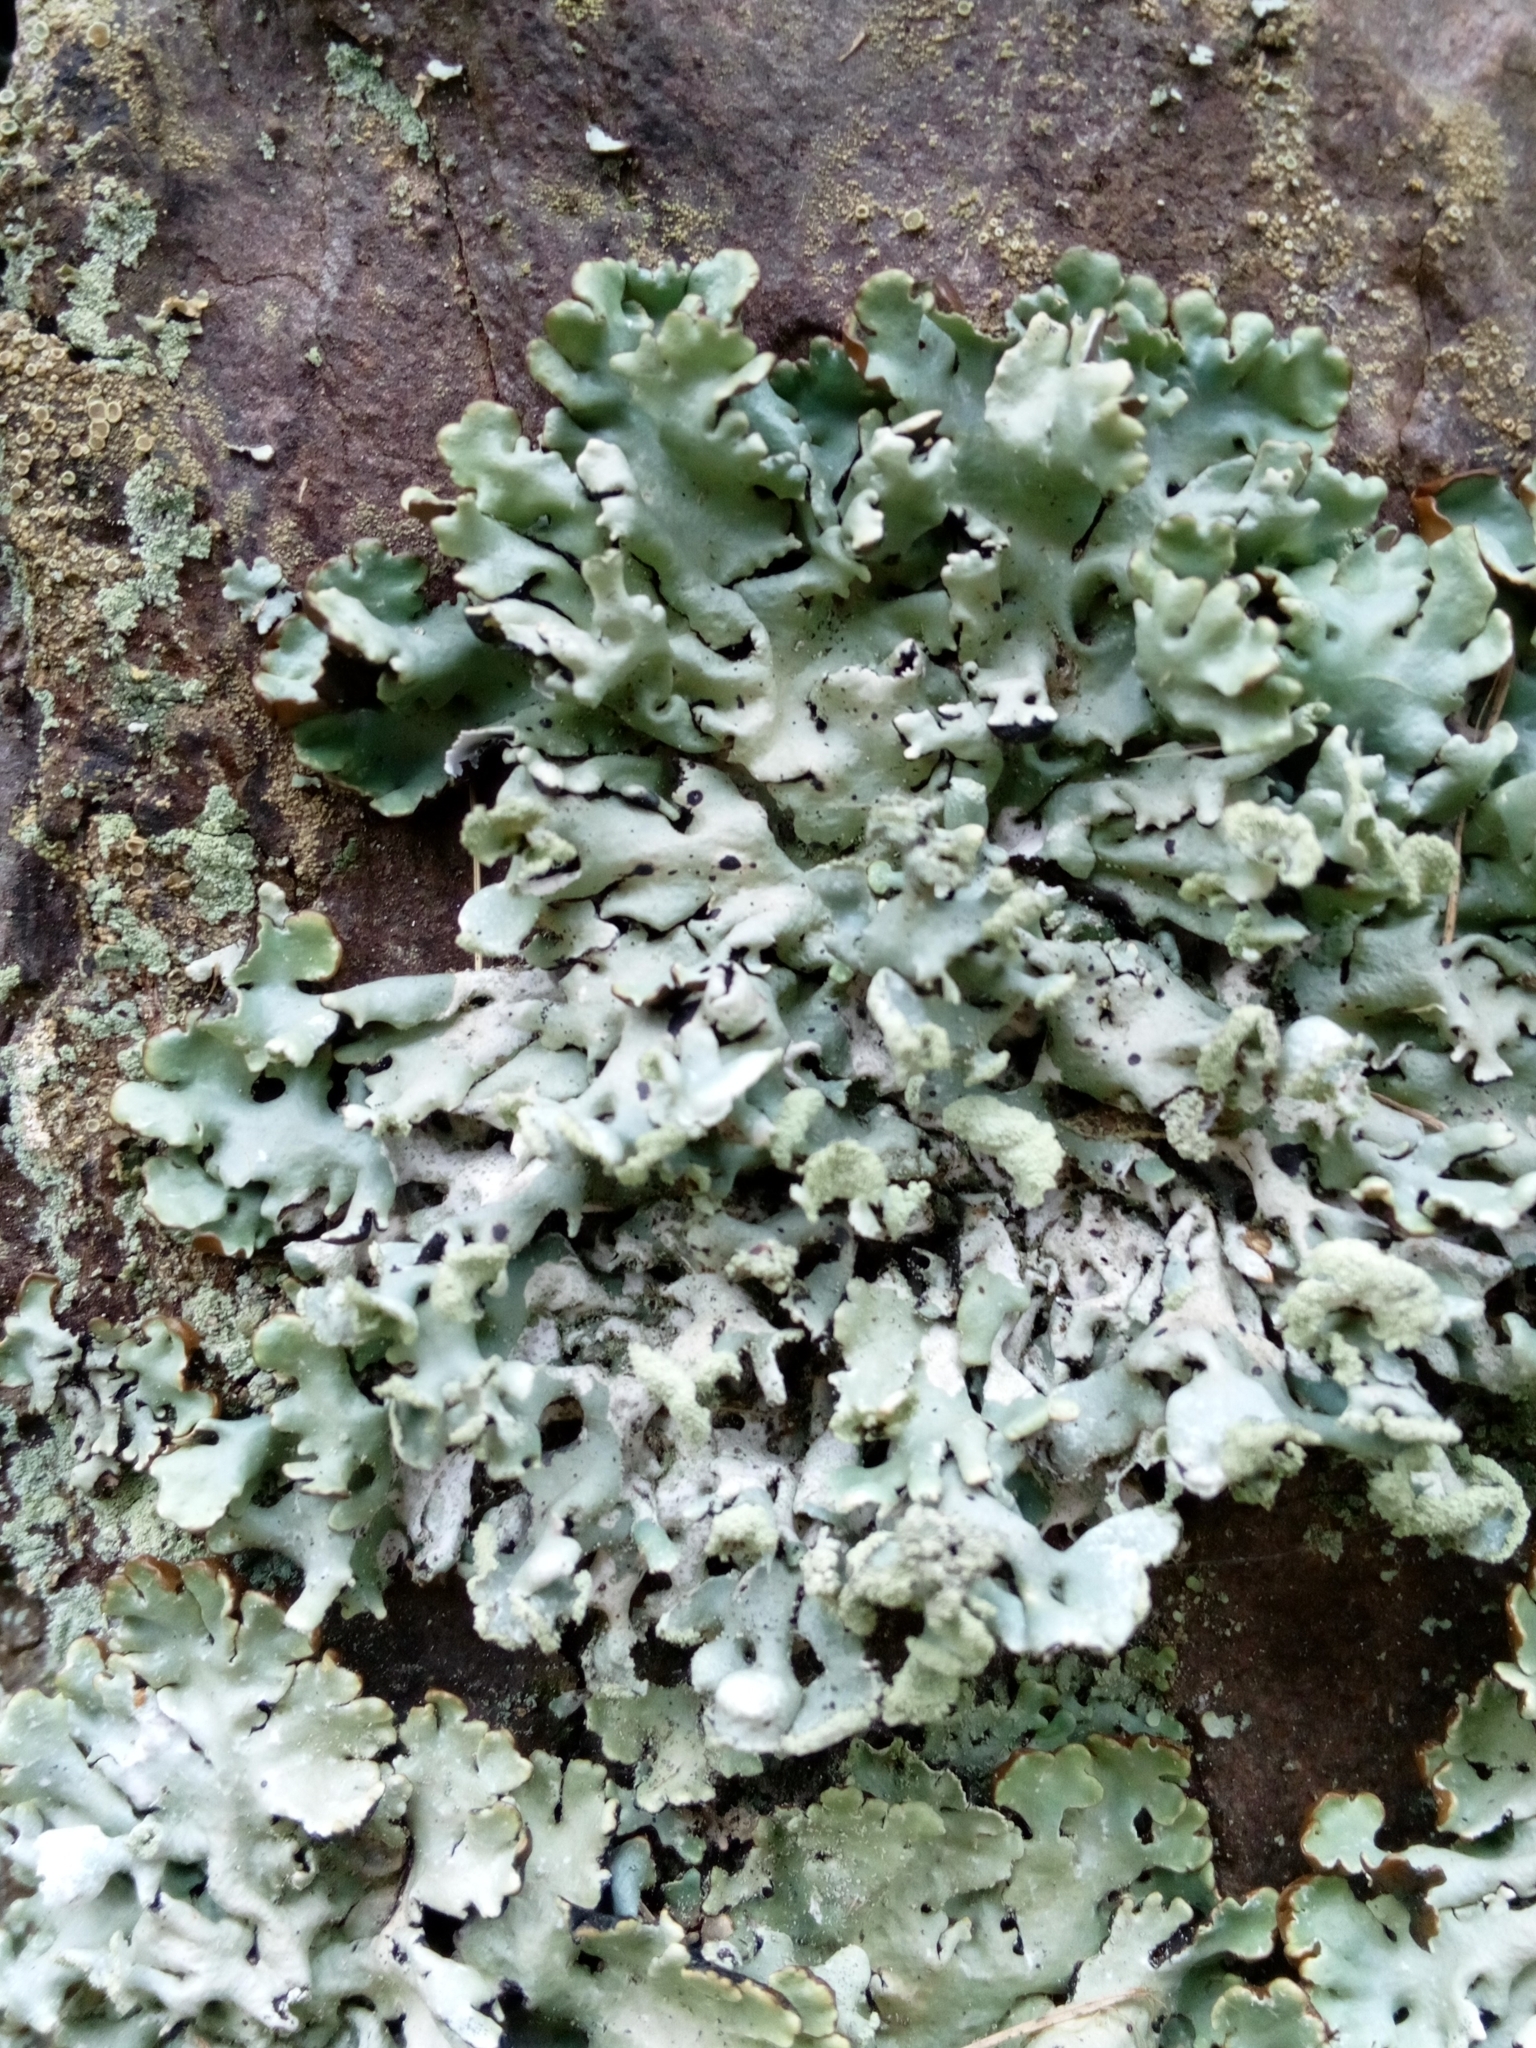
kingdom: Fungi
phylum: Ascomycota
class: Lecanoromycetes
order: Lecanorales
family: Parmeliaceae
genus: Hypogymnia
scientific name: Hypogymnia physodes
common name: Dark crottle
